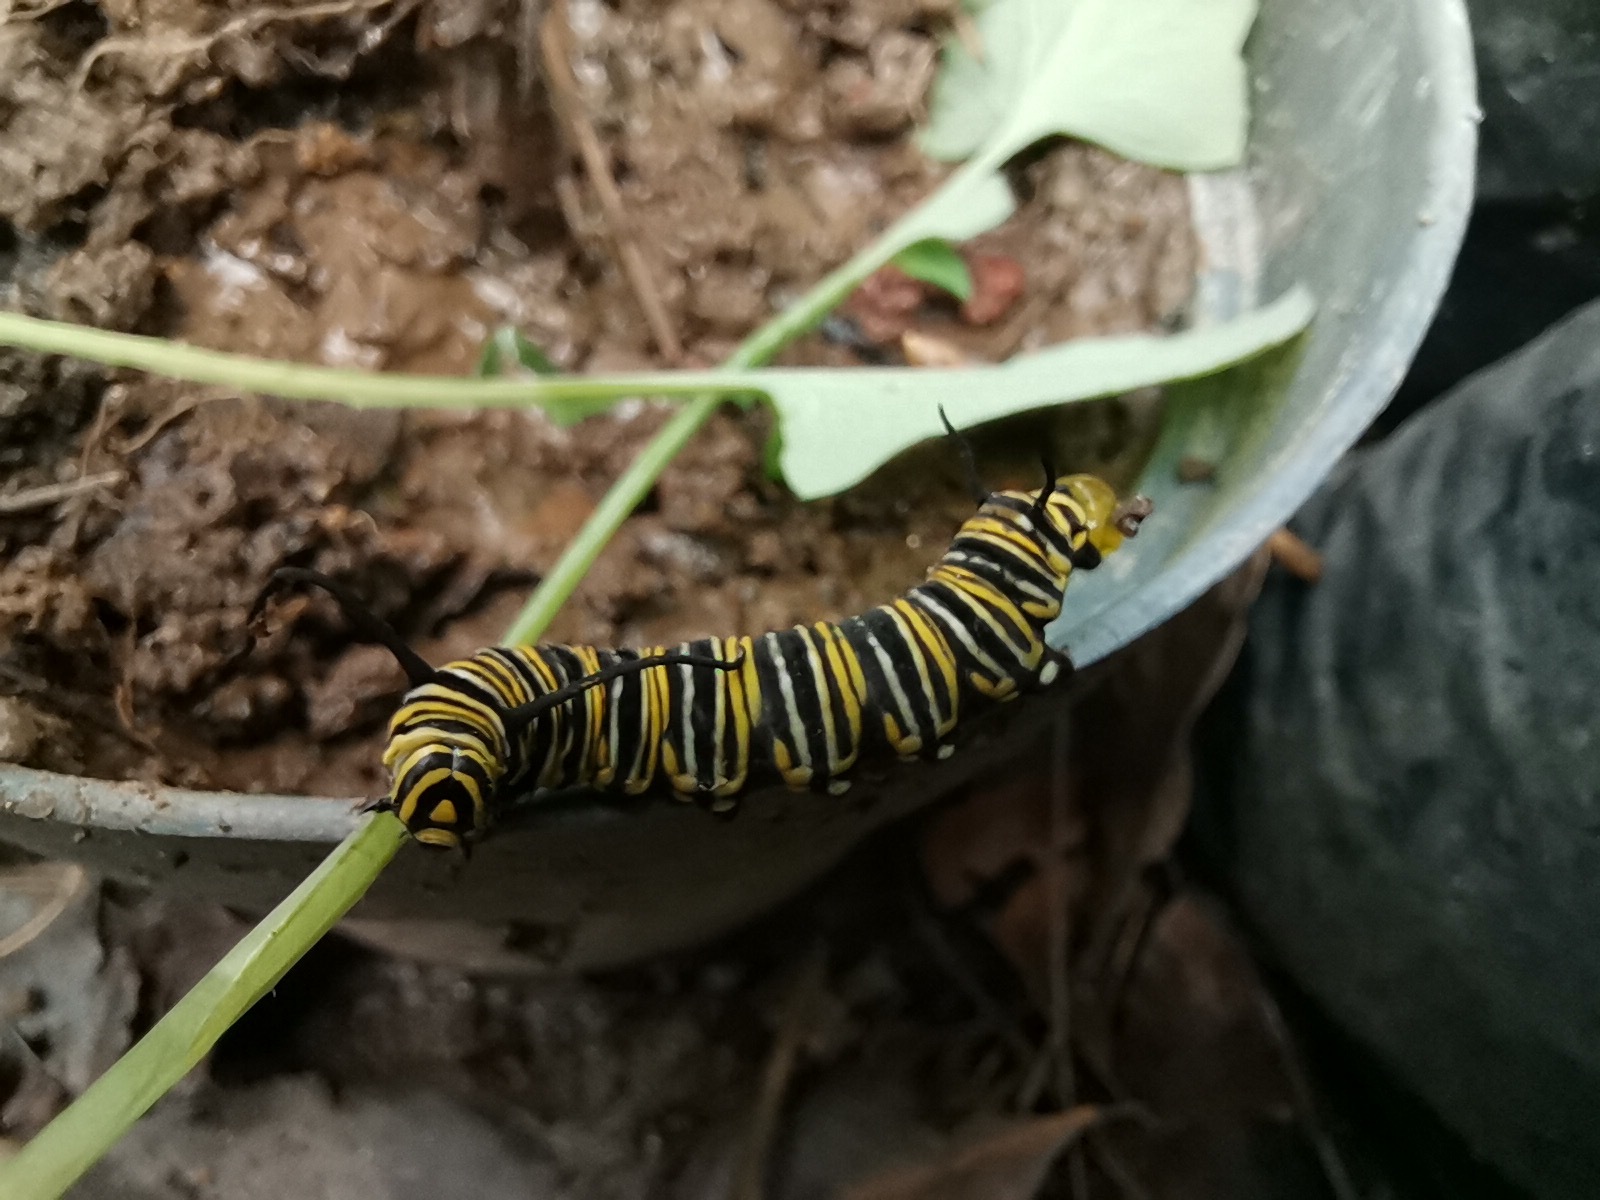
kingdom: Animalia
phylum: Arthropoda
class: Insecta
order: Lepidoptera
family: Nymphalidae
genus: Danaus
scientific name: Danaus plexippus
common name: Monarch
